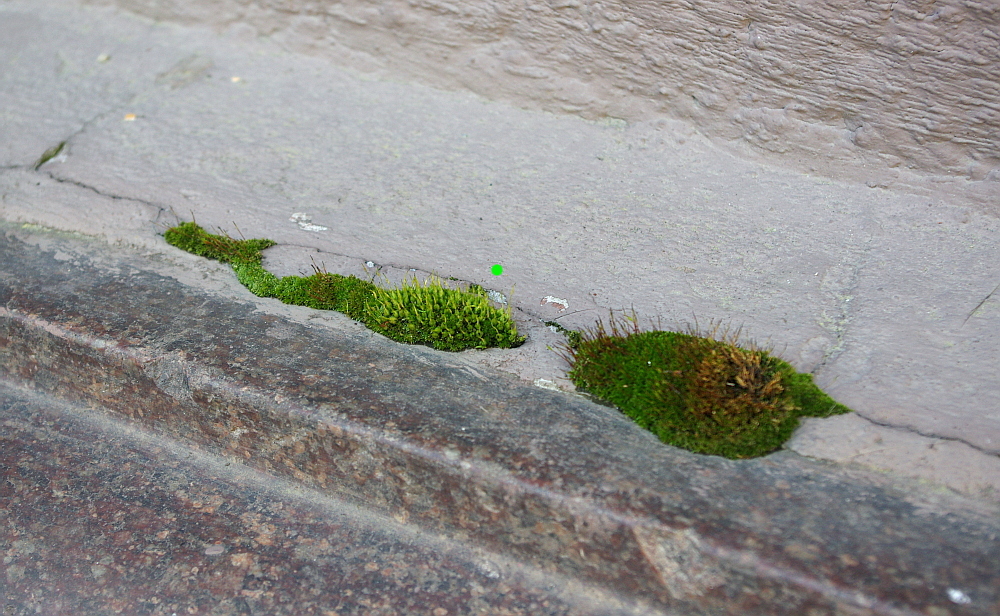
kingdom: Plantae
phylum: Bryophyta
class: Bryopsida
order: Funariales
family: Funariaceae
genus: Funaria
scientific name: Funaria hygrometrica
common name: Common cord moss
